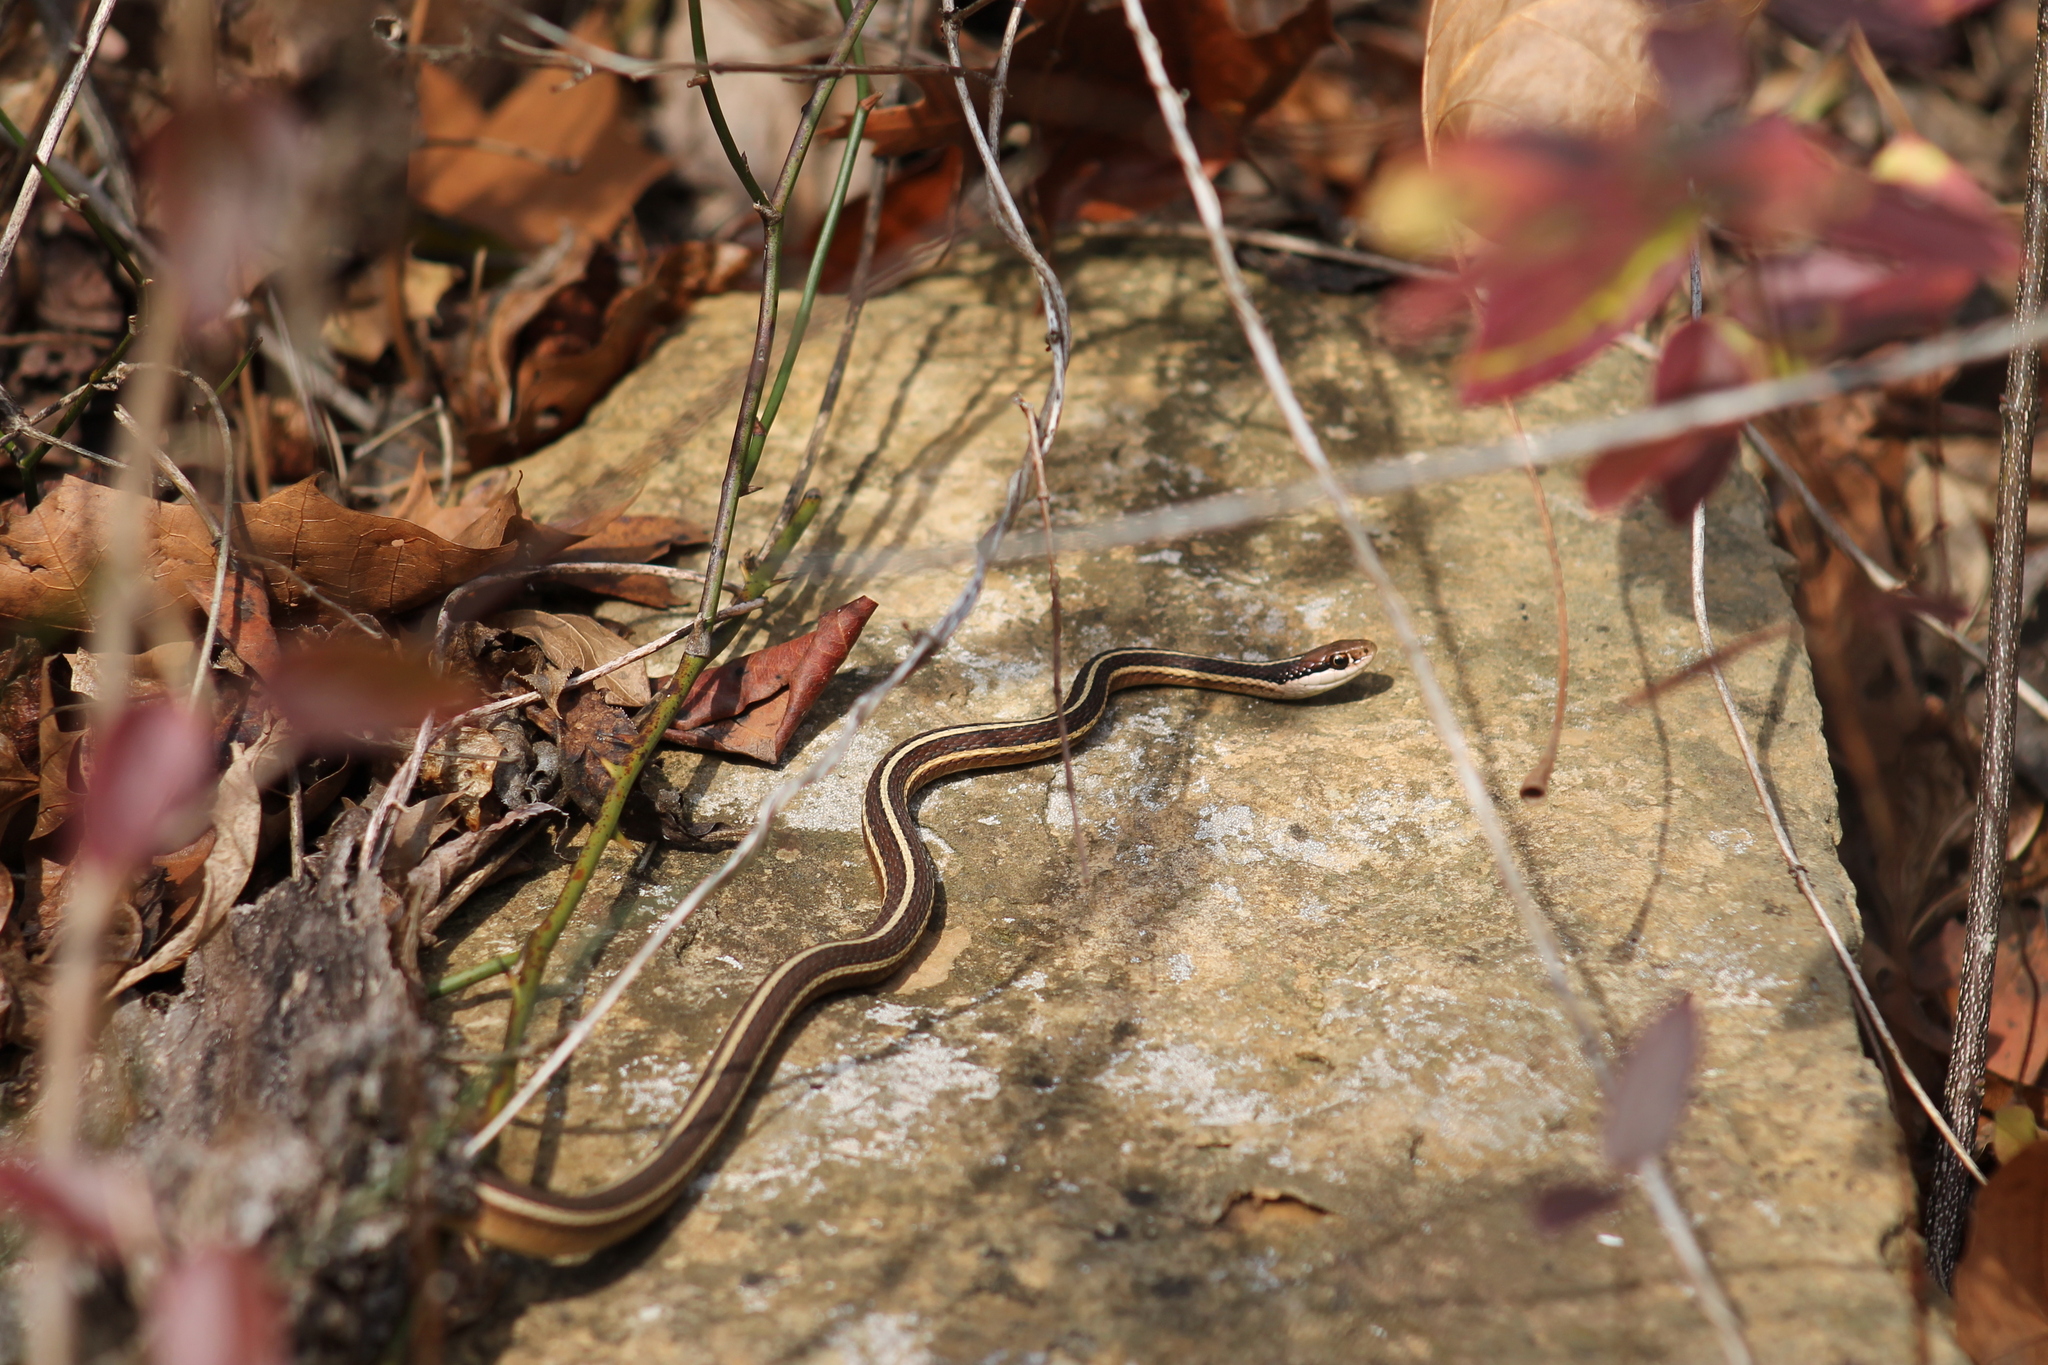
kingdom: Animalia
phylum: Chordata
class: Squamata
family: Colubridae
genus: Thamnophis
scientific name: Thamnophis saurita
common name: Eastern ribbonsnake
